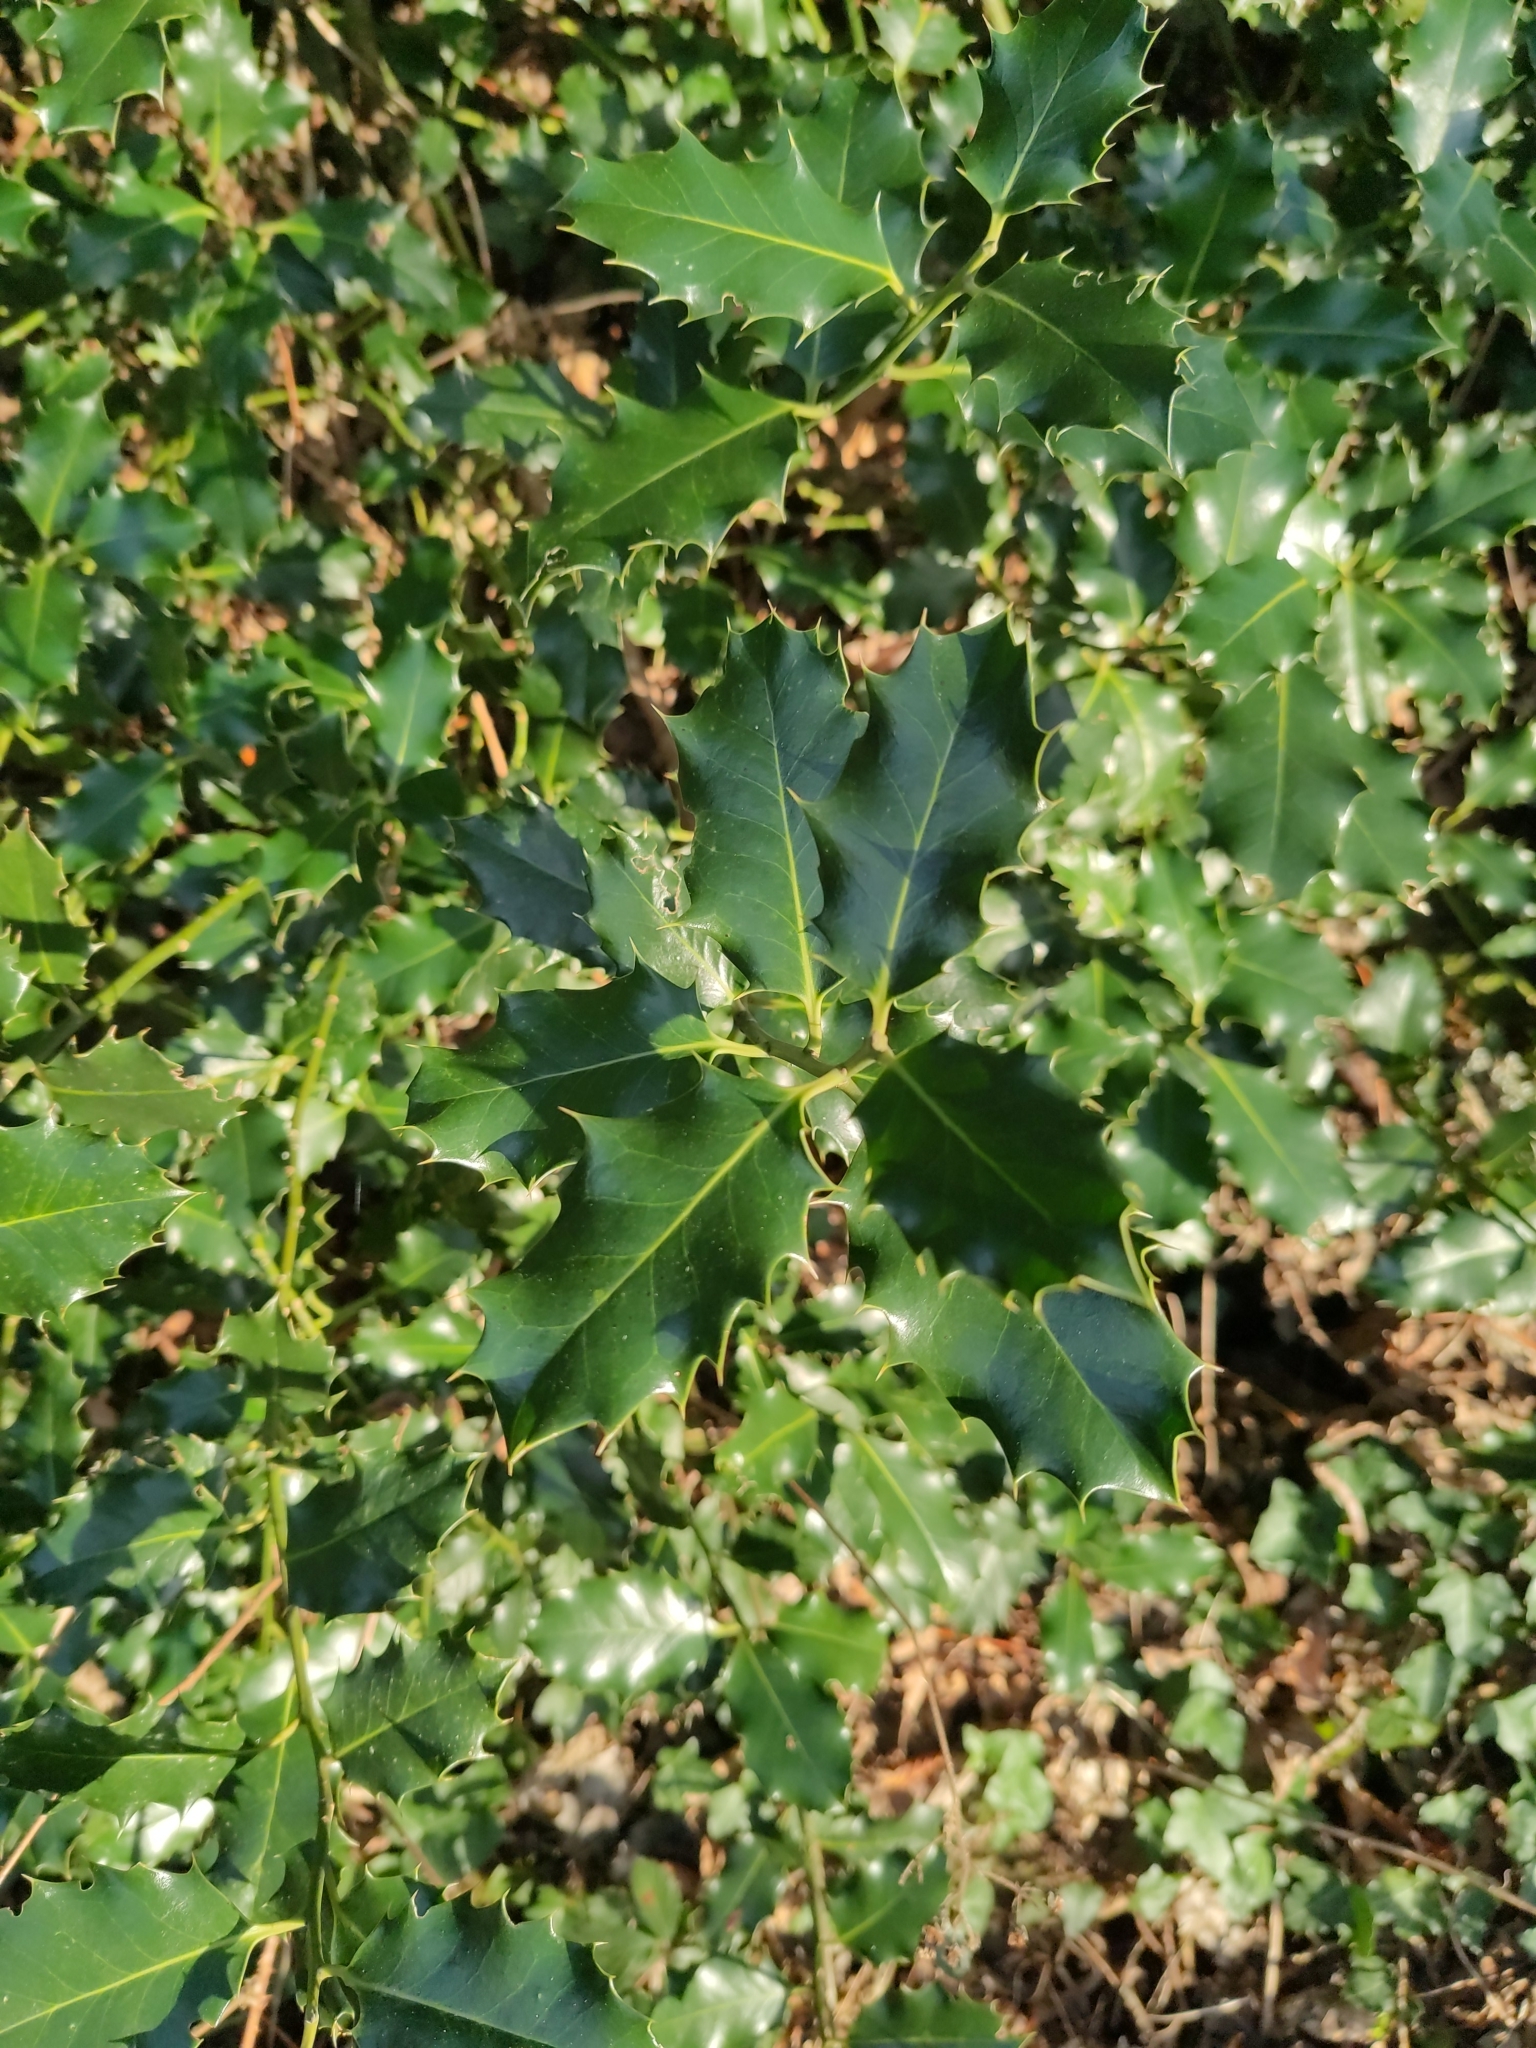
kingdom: Plantae
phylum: Tracheophyta
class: Magnoliopsida
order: Aquifoliales
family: Aquifoliaceae
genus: Ilex
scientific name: Ilex aquifolium
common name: English holly
